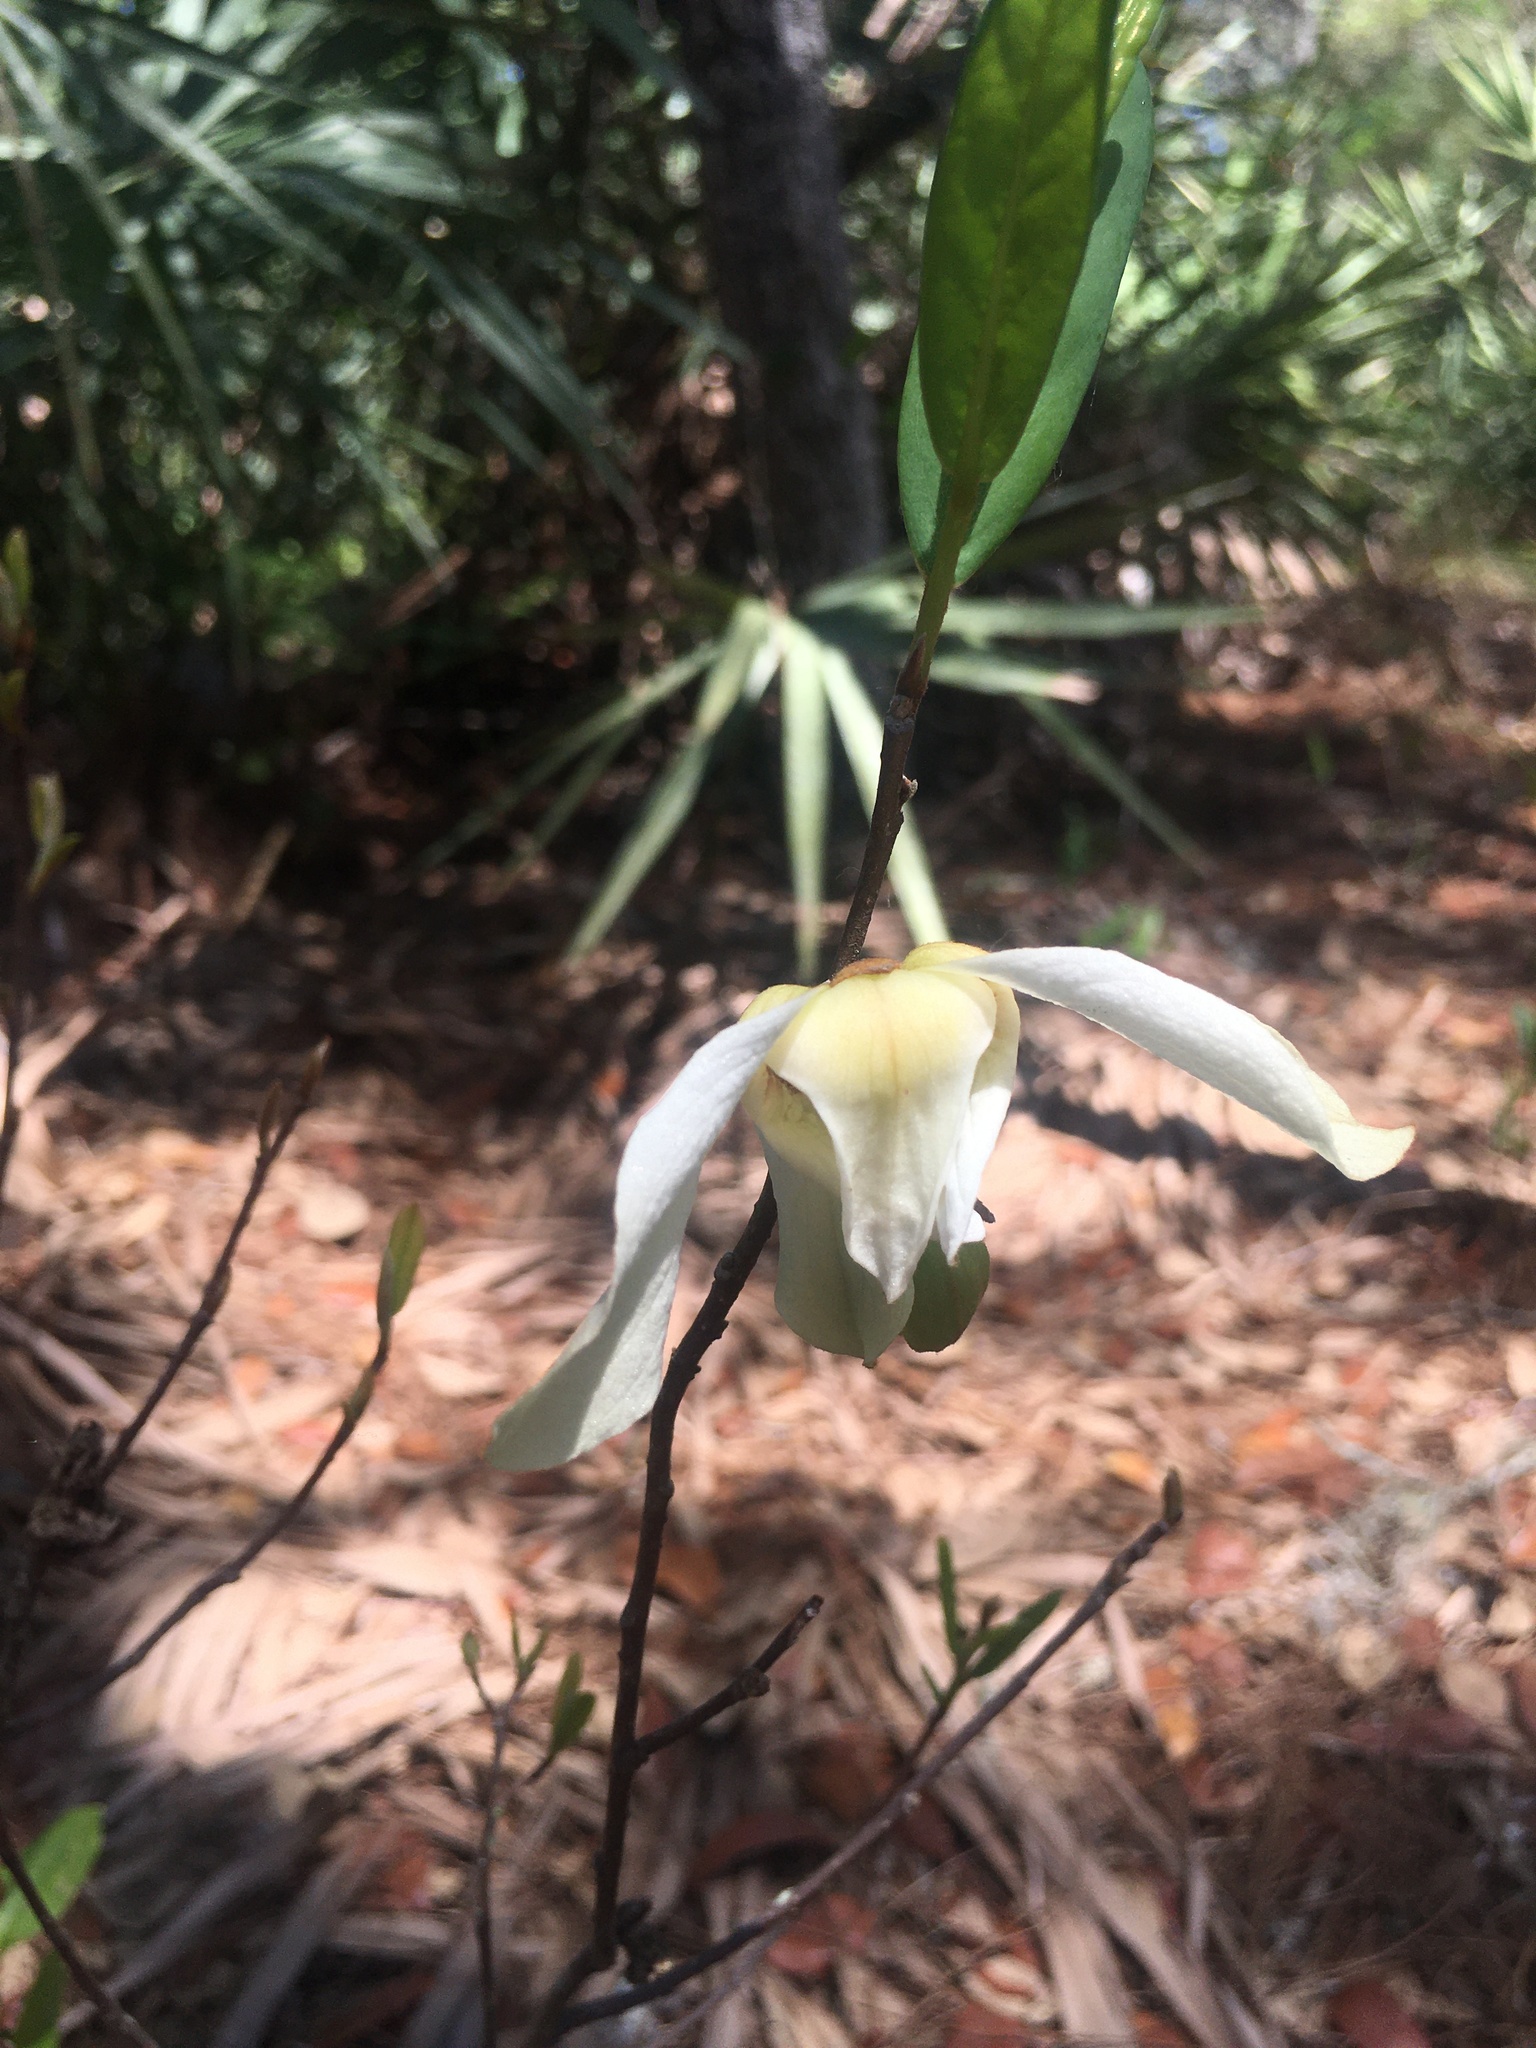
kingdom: Plantae
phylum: Tracheophyta
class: Magnoliopsida
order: Magnoliales
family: Annonaceae
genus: Asimina
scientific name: Asimina reticulata
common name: Flag pawpaw
